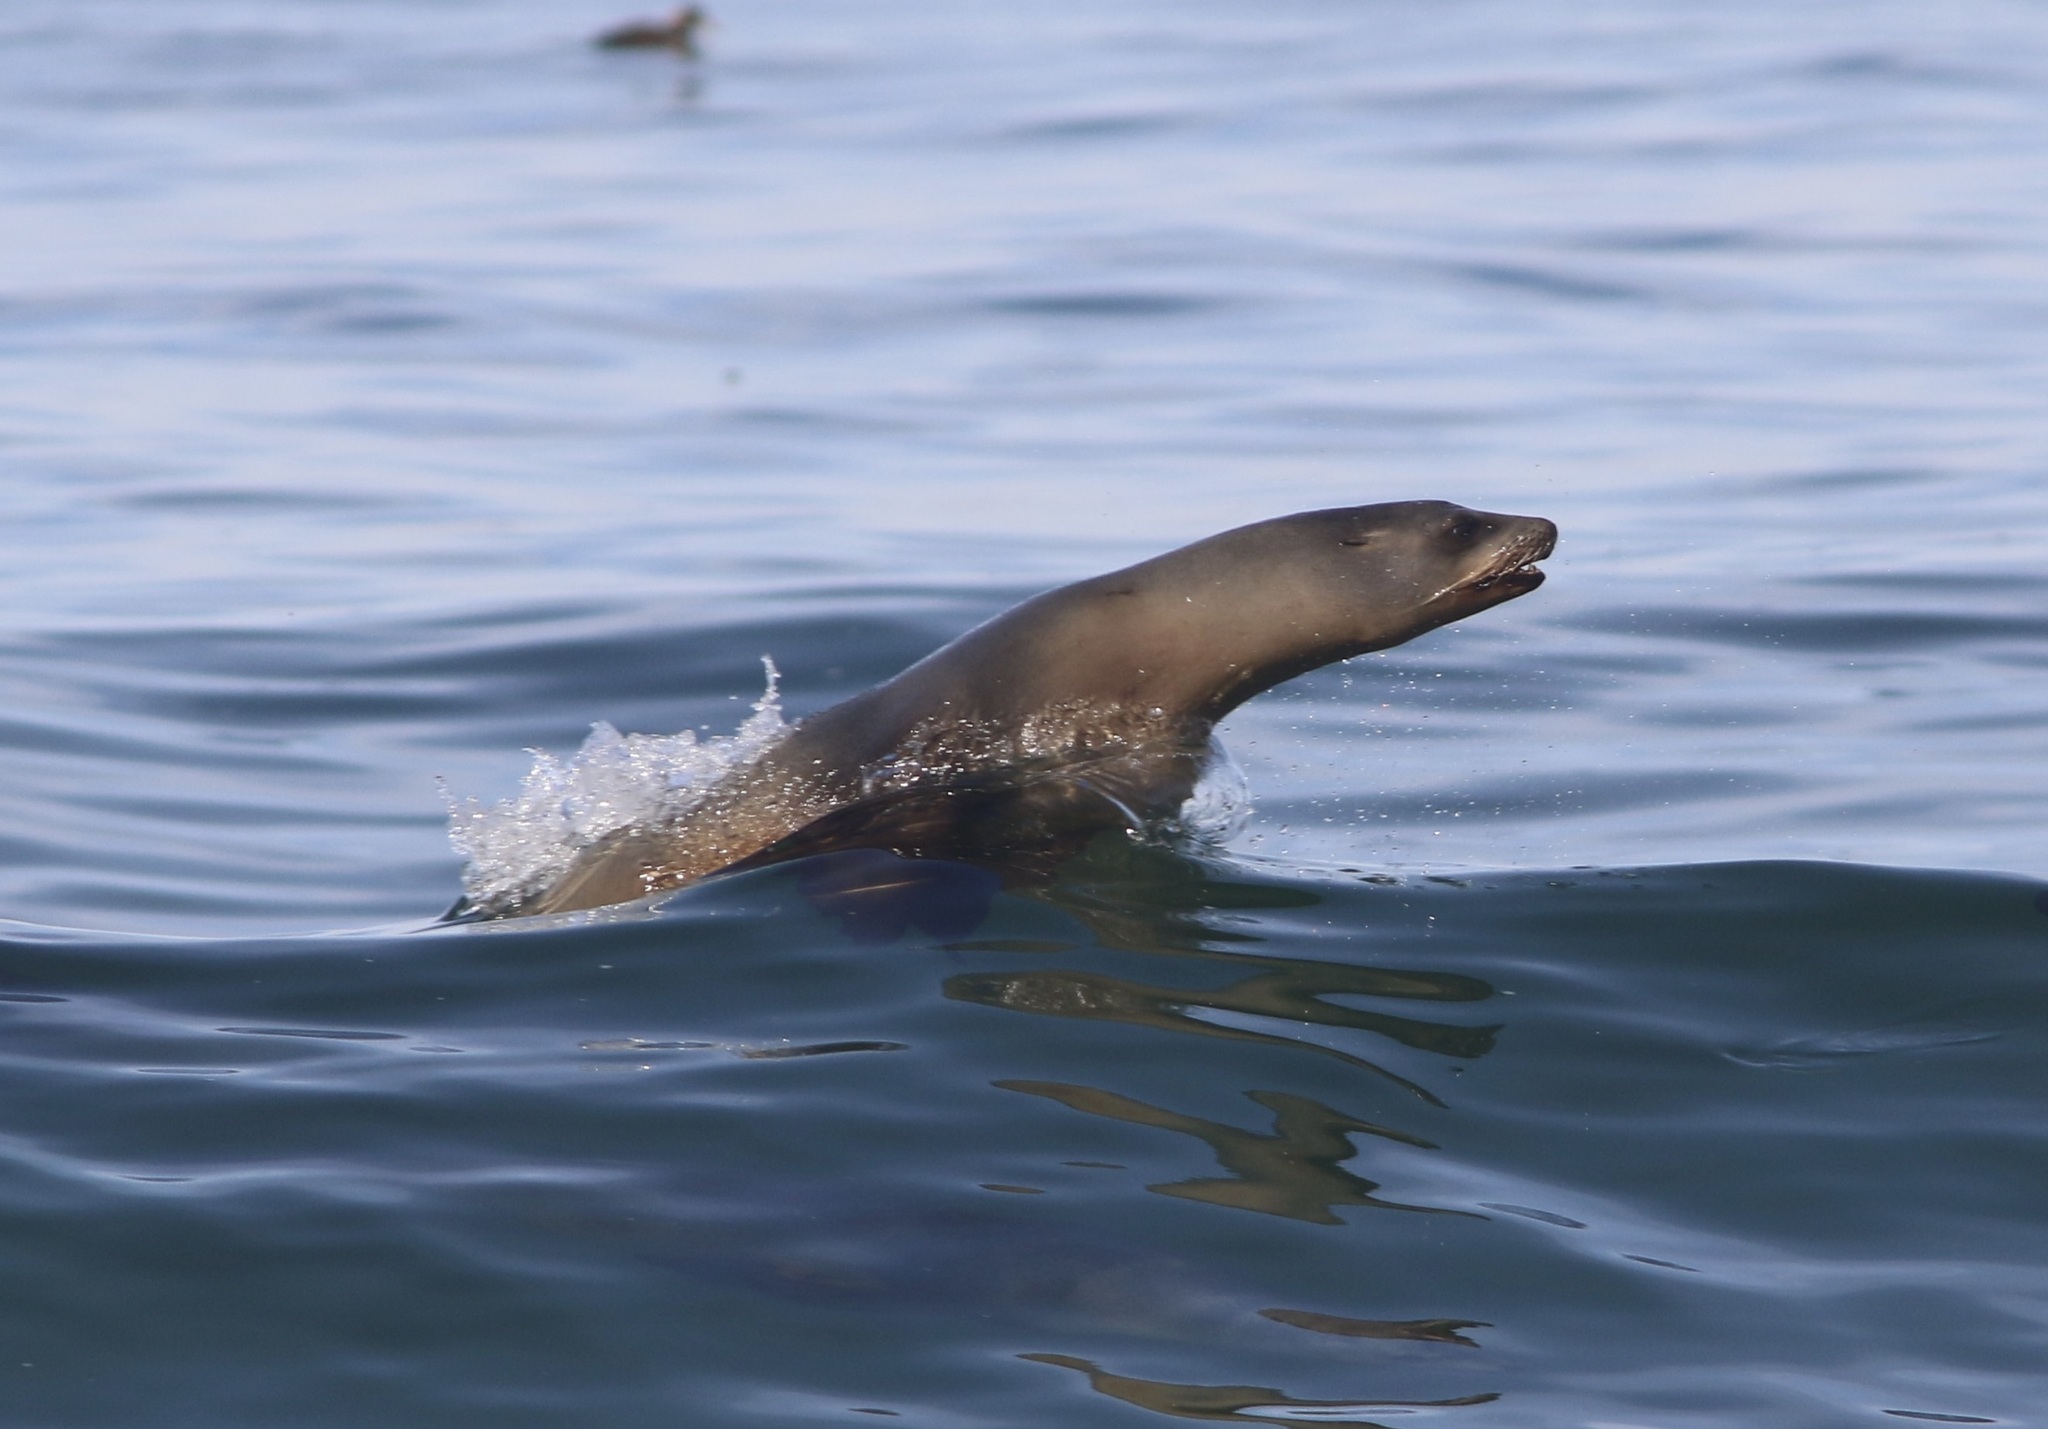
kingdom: Animalia
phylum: Chordata
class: Mammalia
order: Carnivora
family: Otariidae
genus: Zalophus
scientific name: Zalophus californianus
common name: California sea lion
